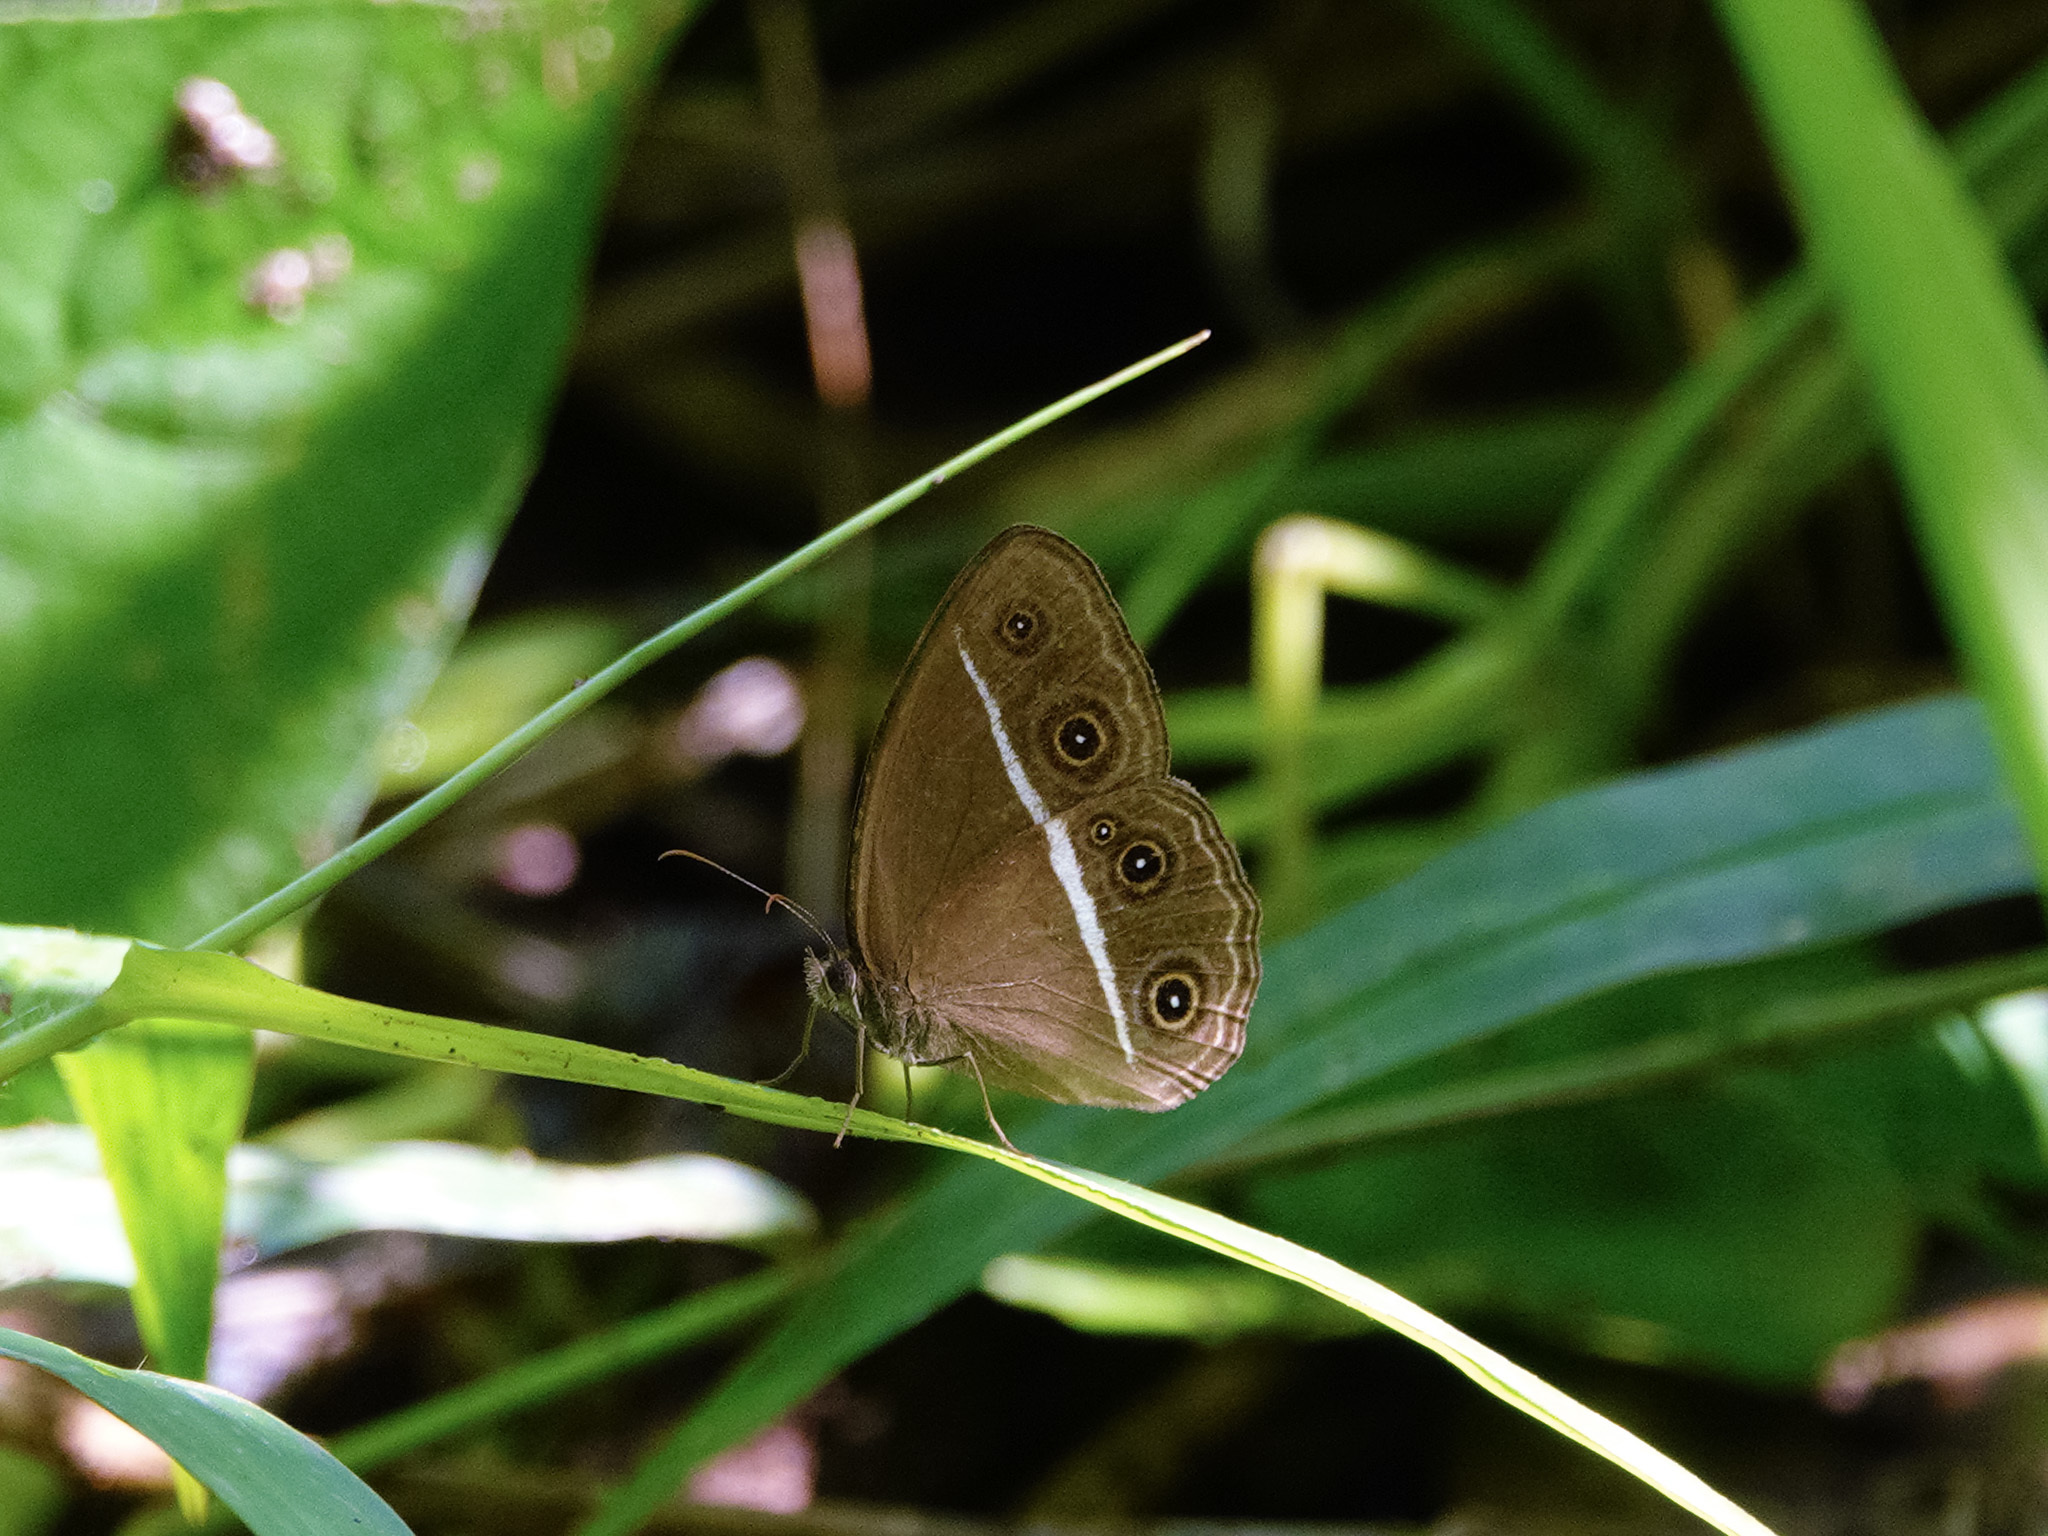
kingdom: Animalia
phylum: Arthropoda
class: Insecta
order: Lepidoptera
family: Nymphalidae
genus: Orsotriaena
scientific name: Orsotriaena medus
